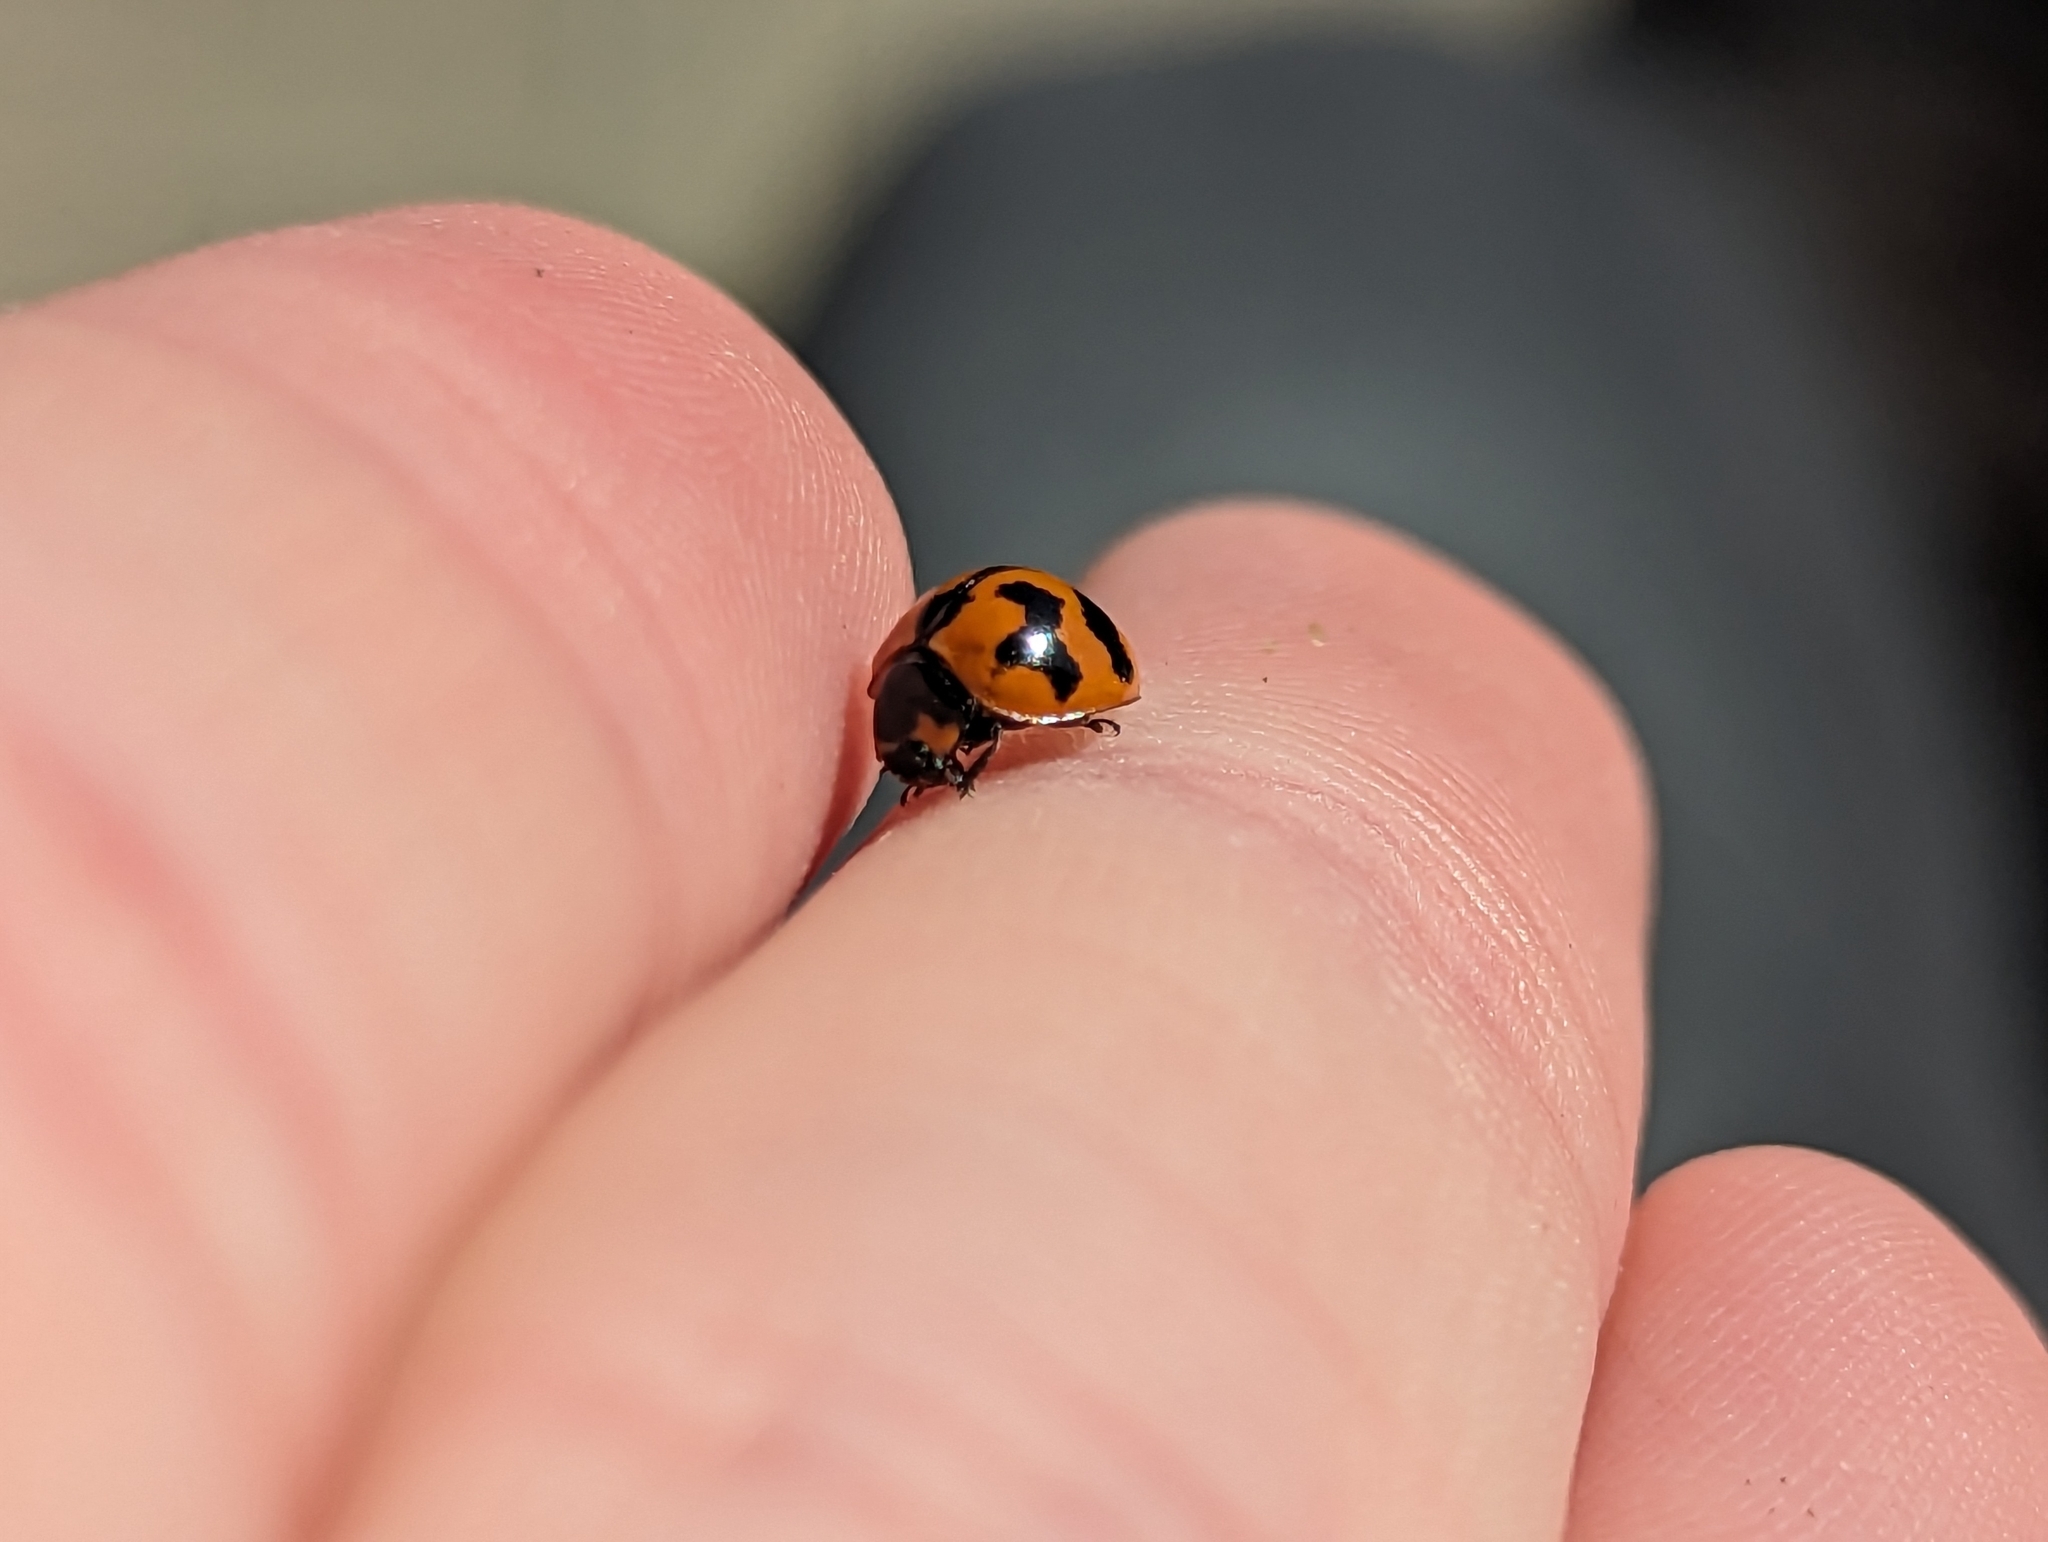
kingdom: Animalia
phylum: Arthropoda
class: Insecta
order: Coleoptera
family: Coccinellidae
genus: Coccinella
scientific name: Coccinella transversalis
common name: Transverse lady beetle
